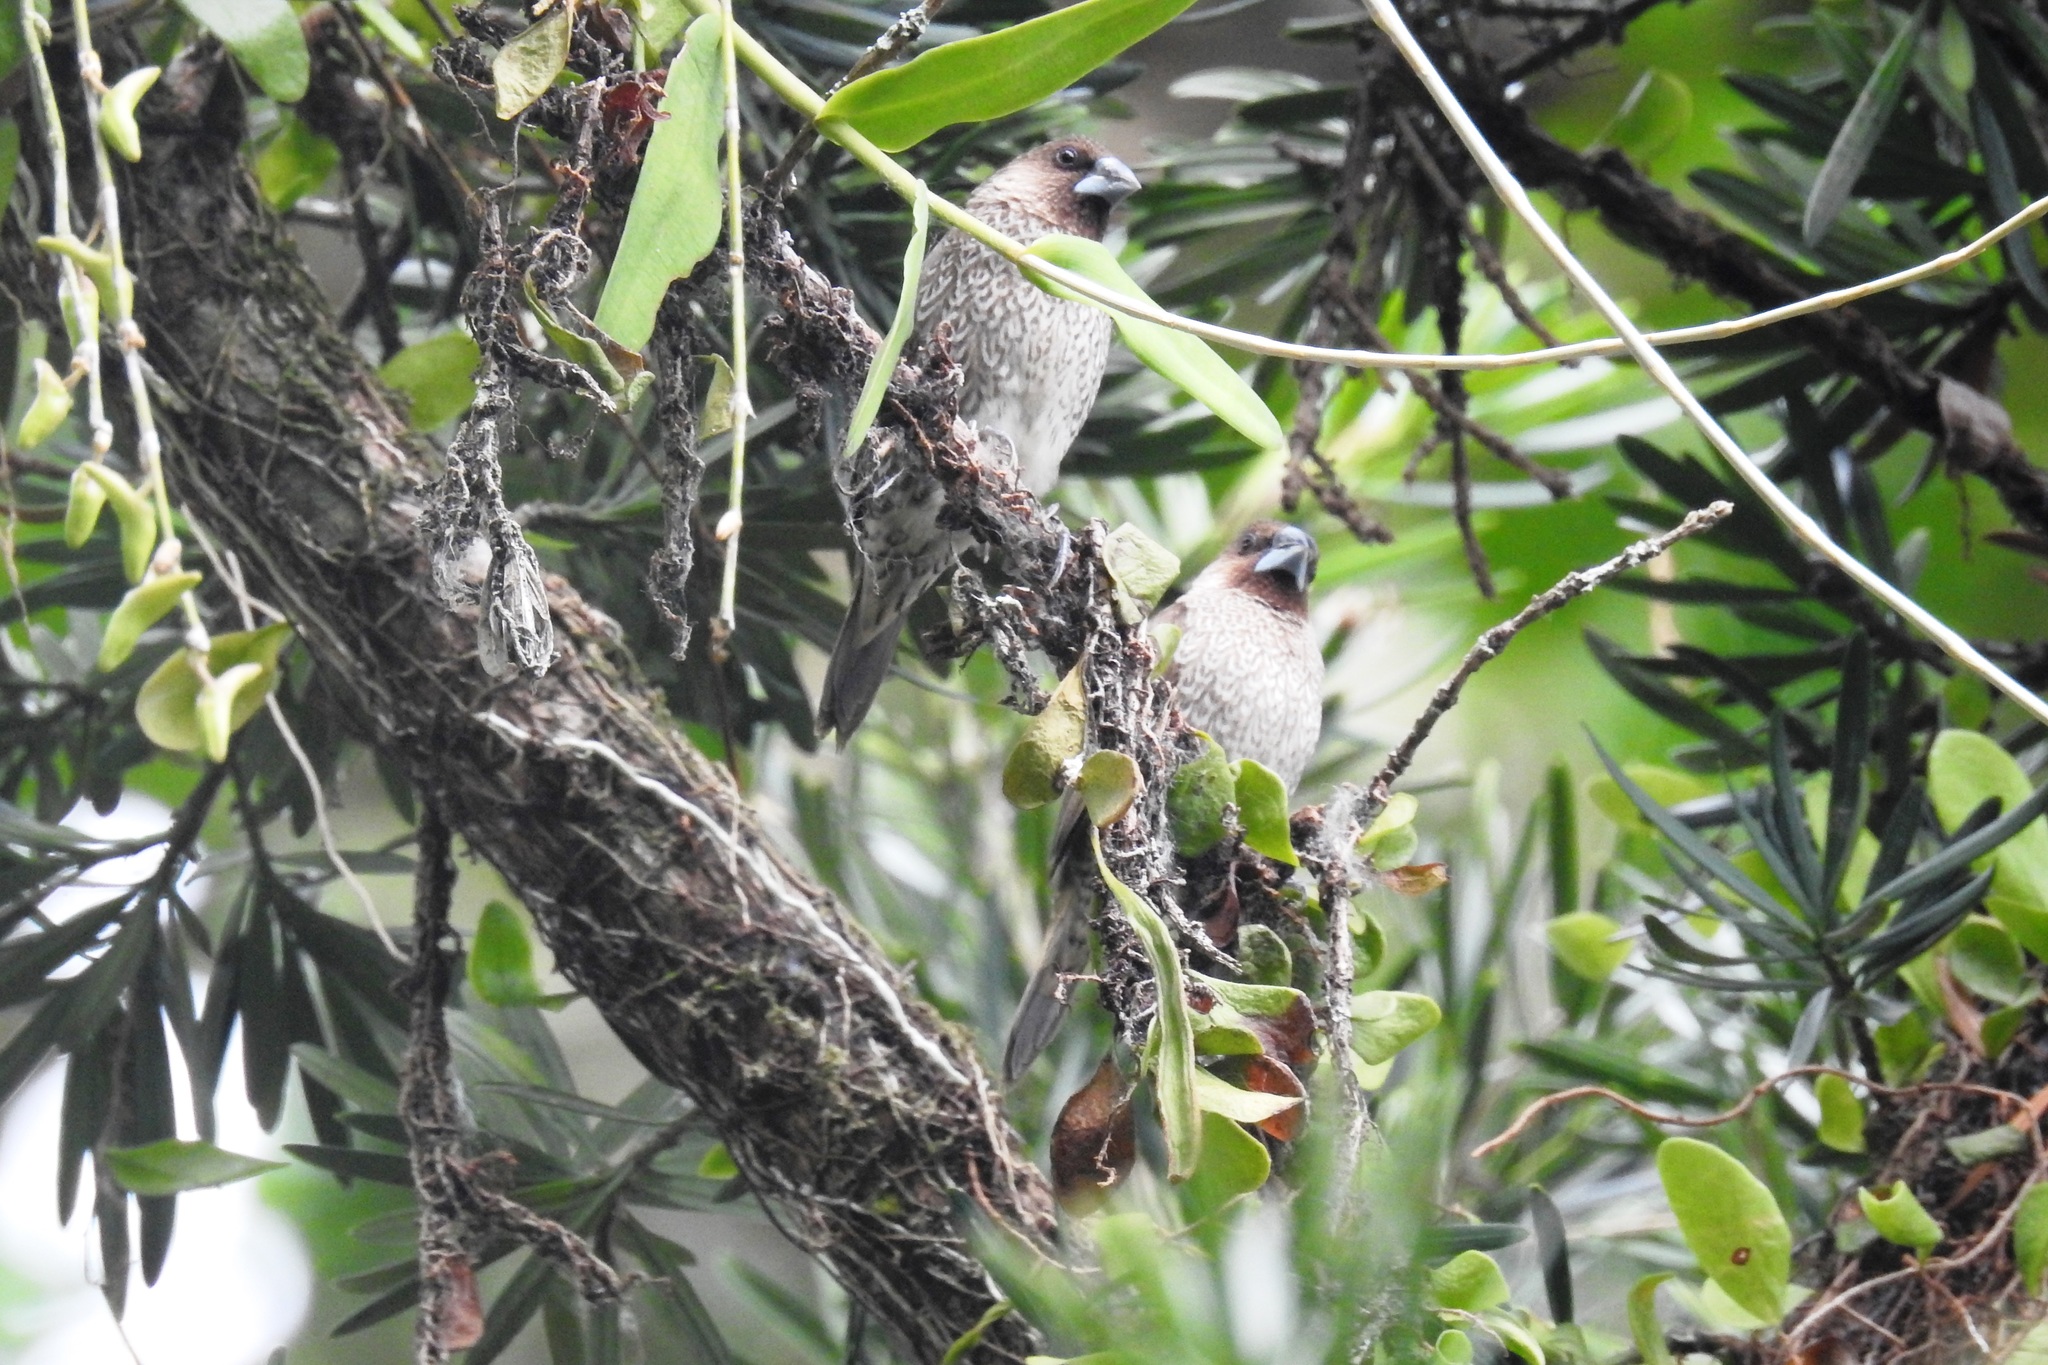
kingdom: Animalia
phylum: Chordata
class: Aves
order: Passeriformes
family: Estrildidae
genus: Lonchura
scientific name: Lonchura punctulata
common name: Scaly-breasted munia
